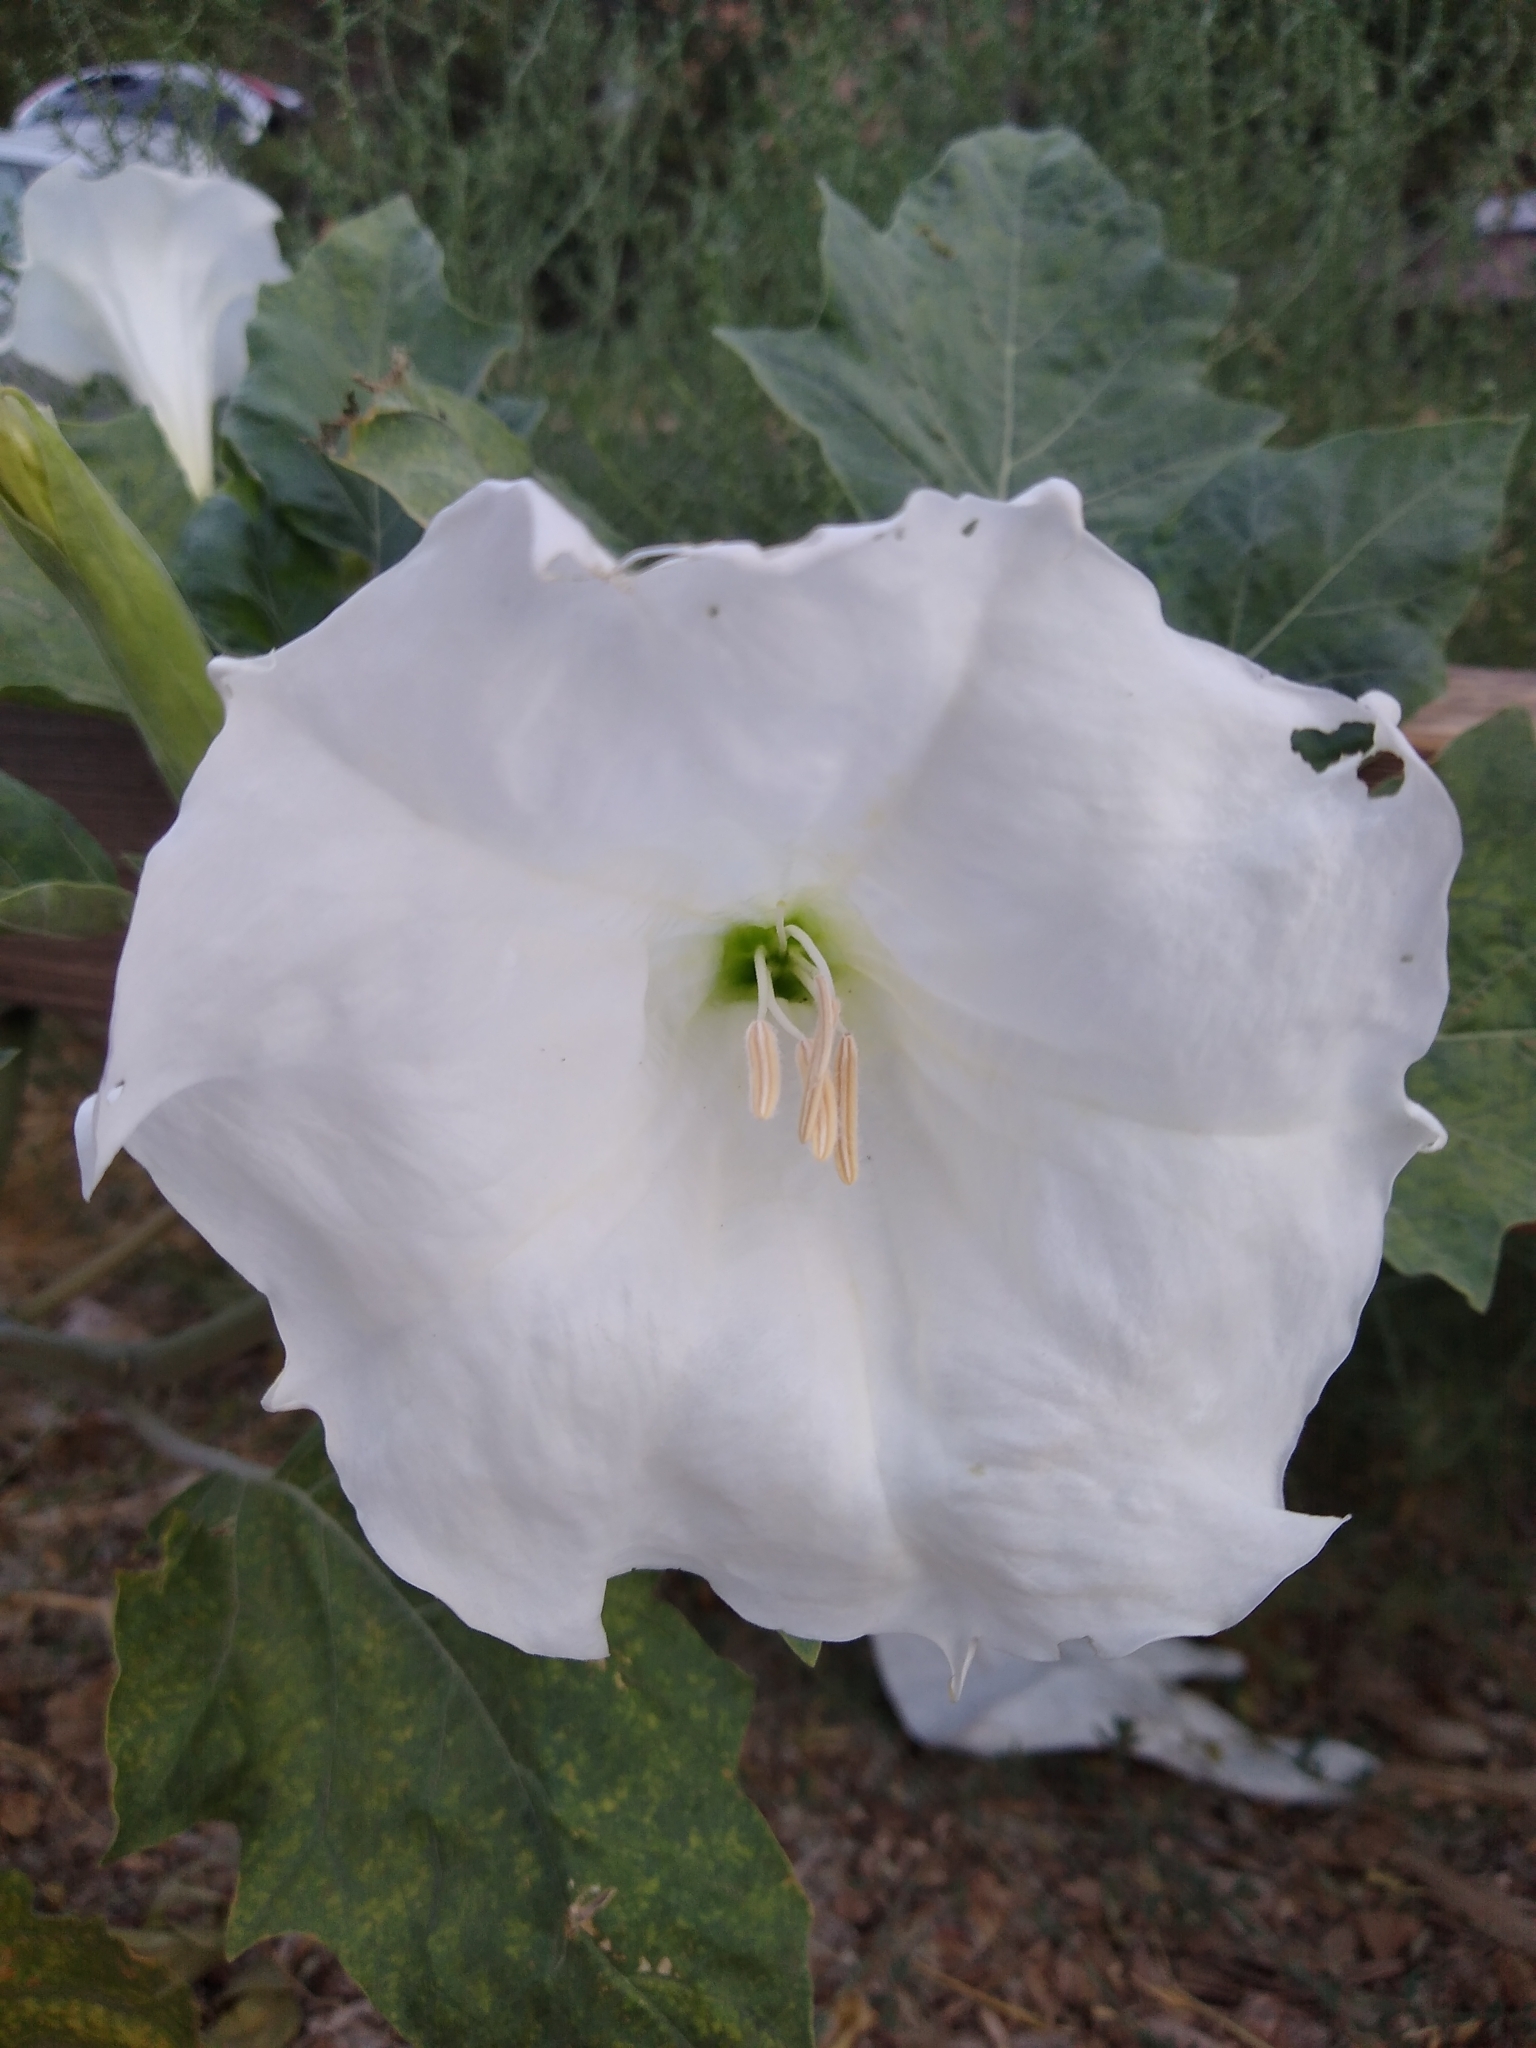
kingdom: Plantae
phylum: Tracheophyta
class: Magnoliopsida
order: Solanales
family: Solanaceae
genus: Datura
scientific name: Datura wrightii
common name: Sacred thorn-apple
